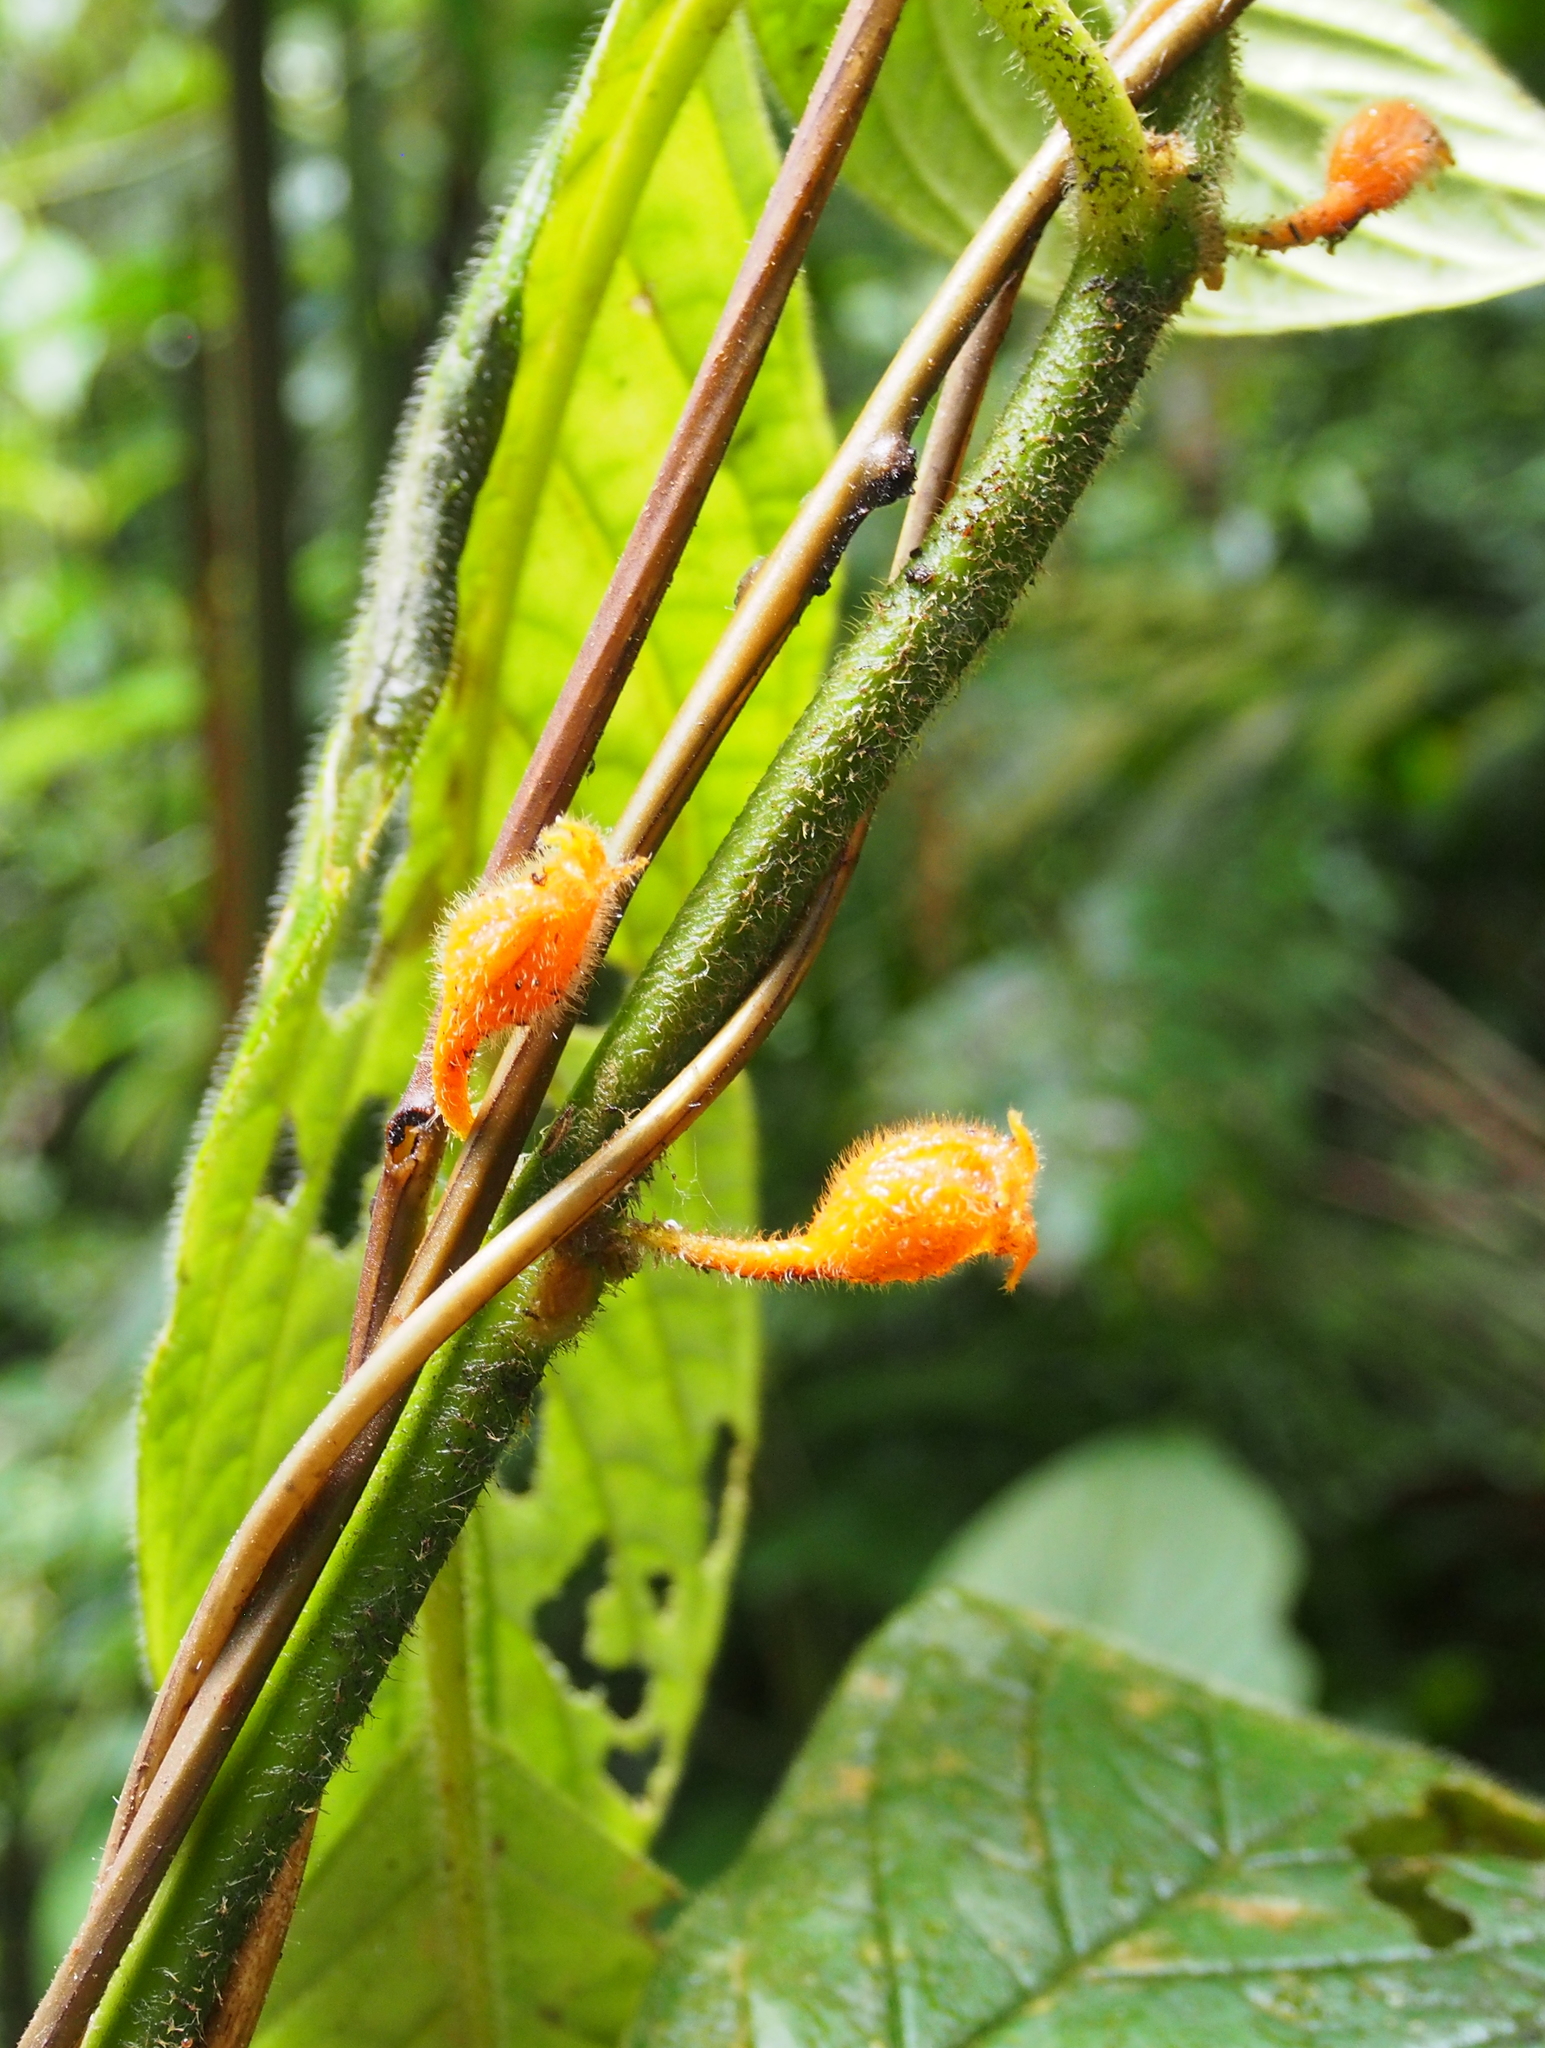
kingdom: Plantae
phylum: Tracheophyta
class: Magnoliopsida
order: Lamiales
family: Gesneriaceae
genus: Besleria
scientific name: Besleria columneoides
